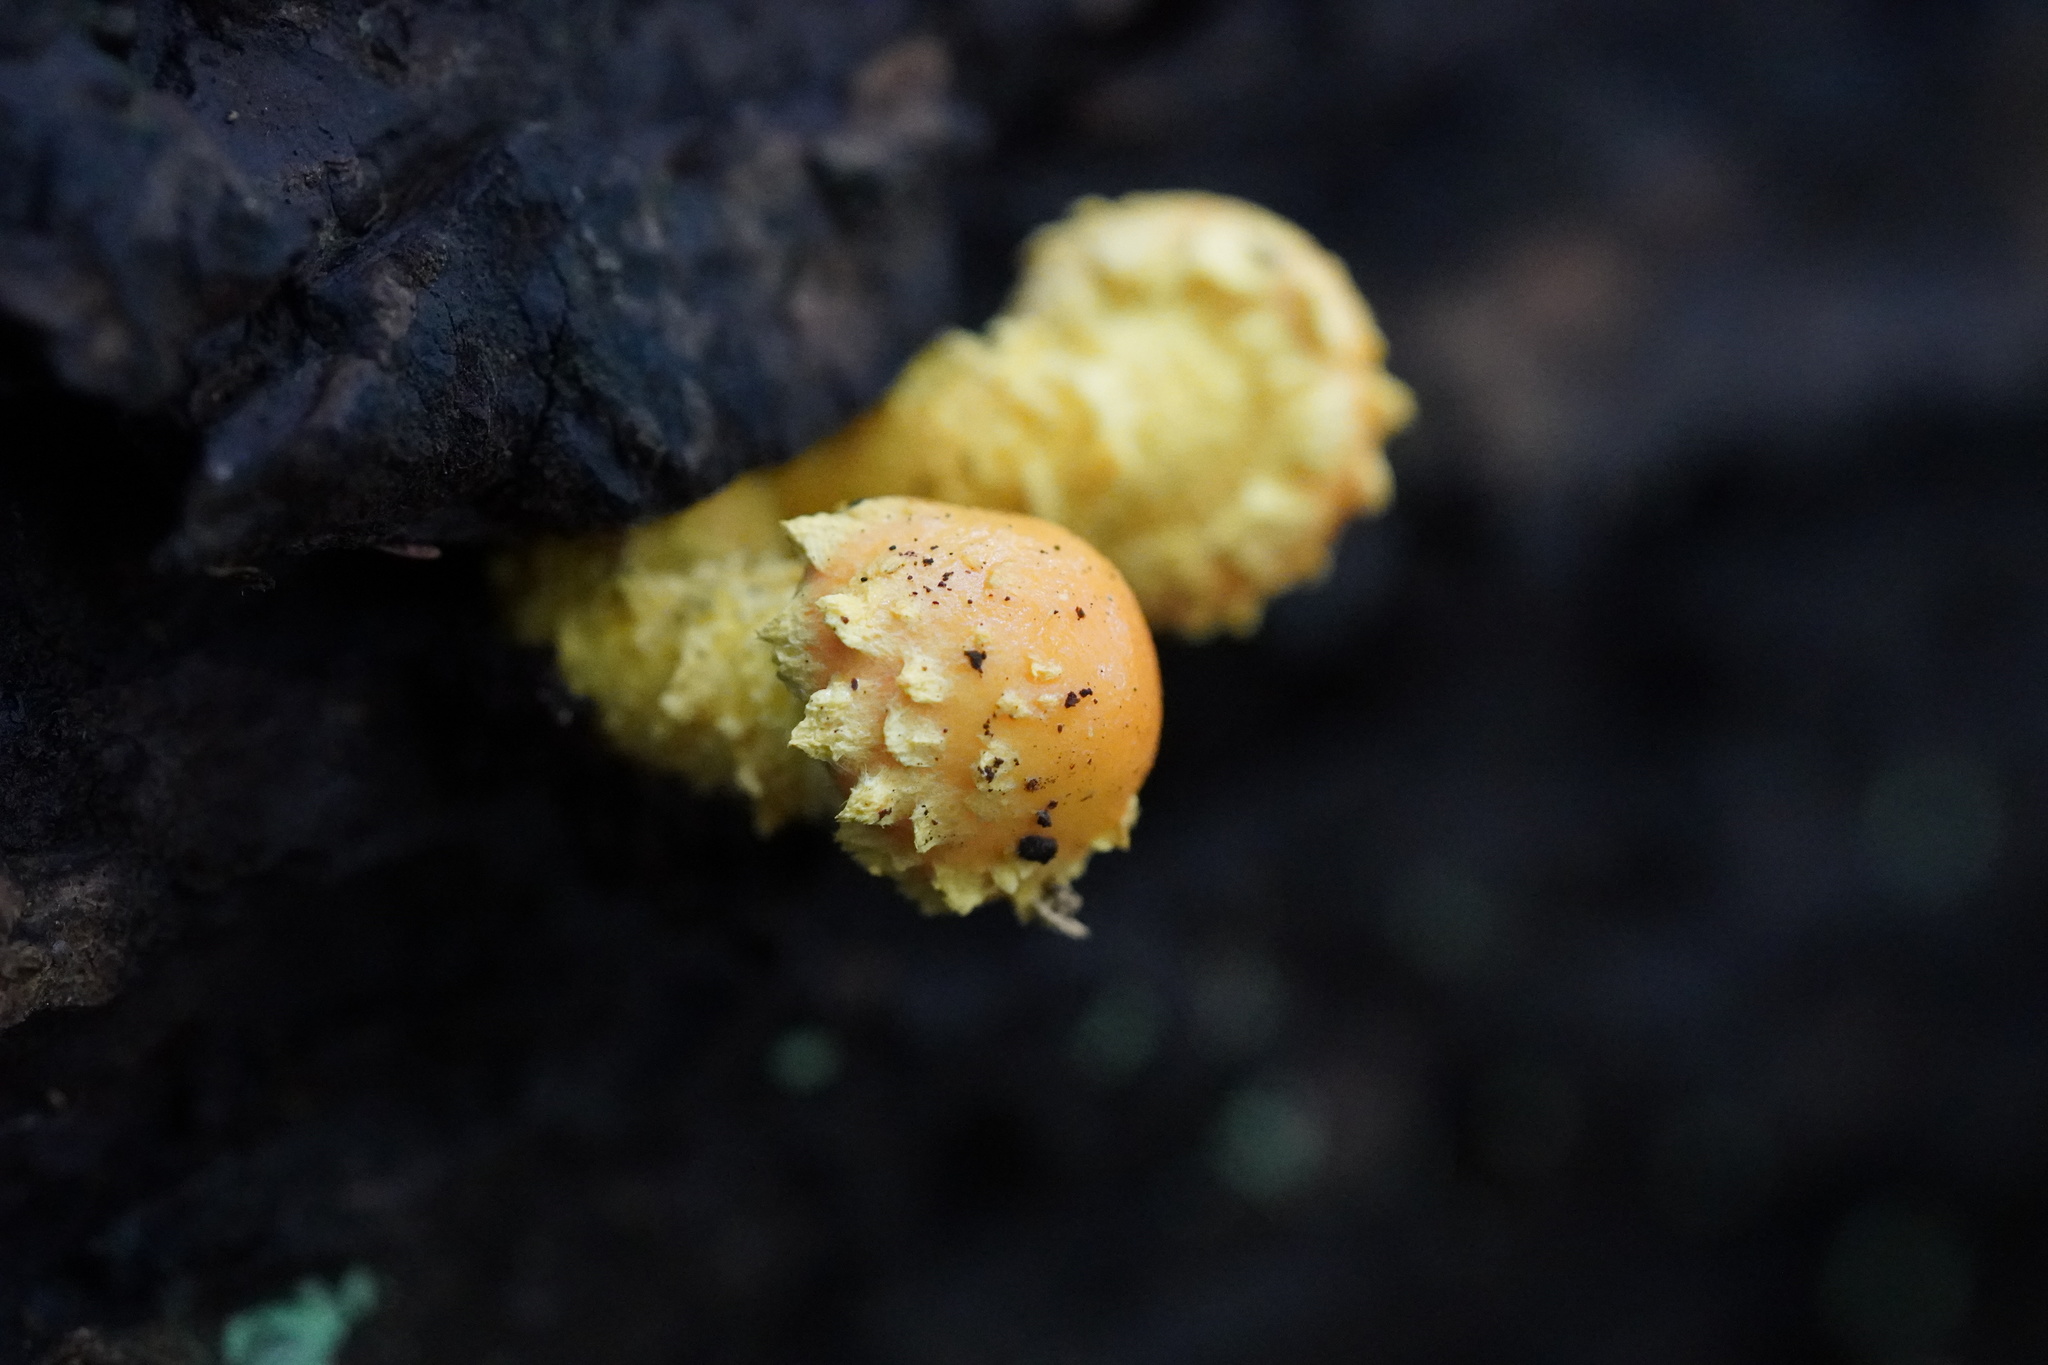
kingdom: Fungi
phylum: Basidiomycota
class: Agaricomycetes
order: Agaricales
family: Strophariaceae
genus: Pholiota
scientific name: Pholiota flammans
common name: Flaming scalycap
